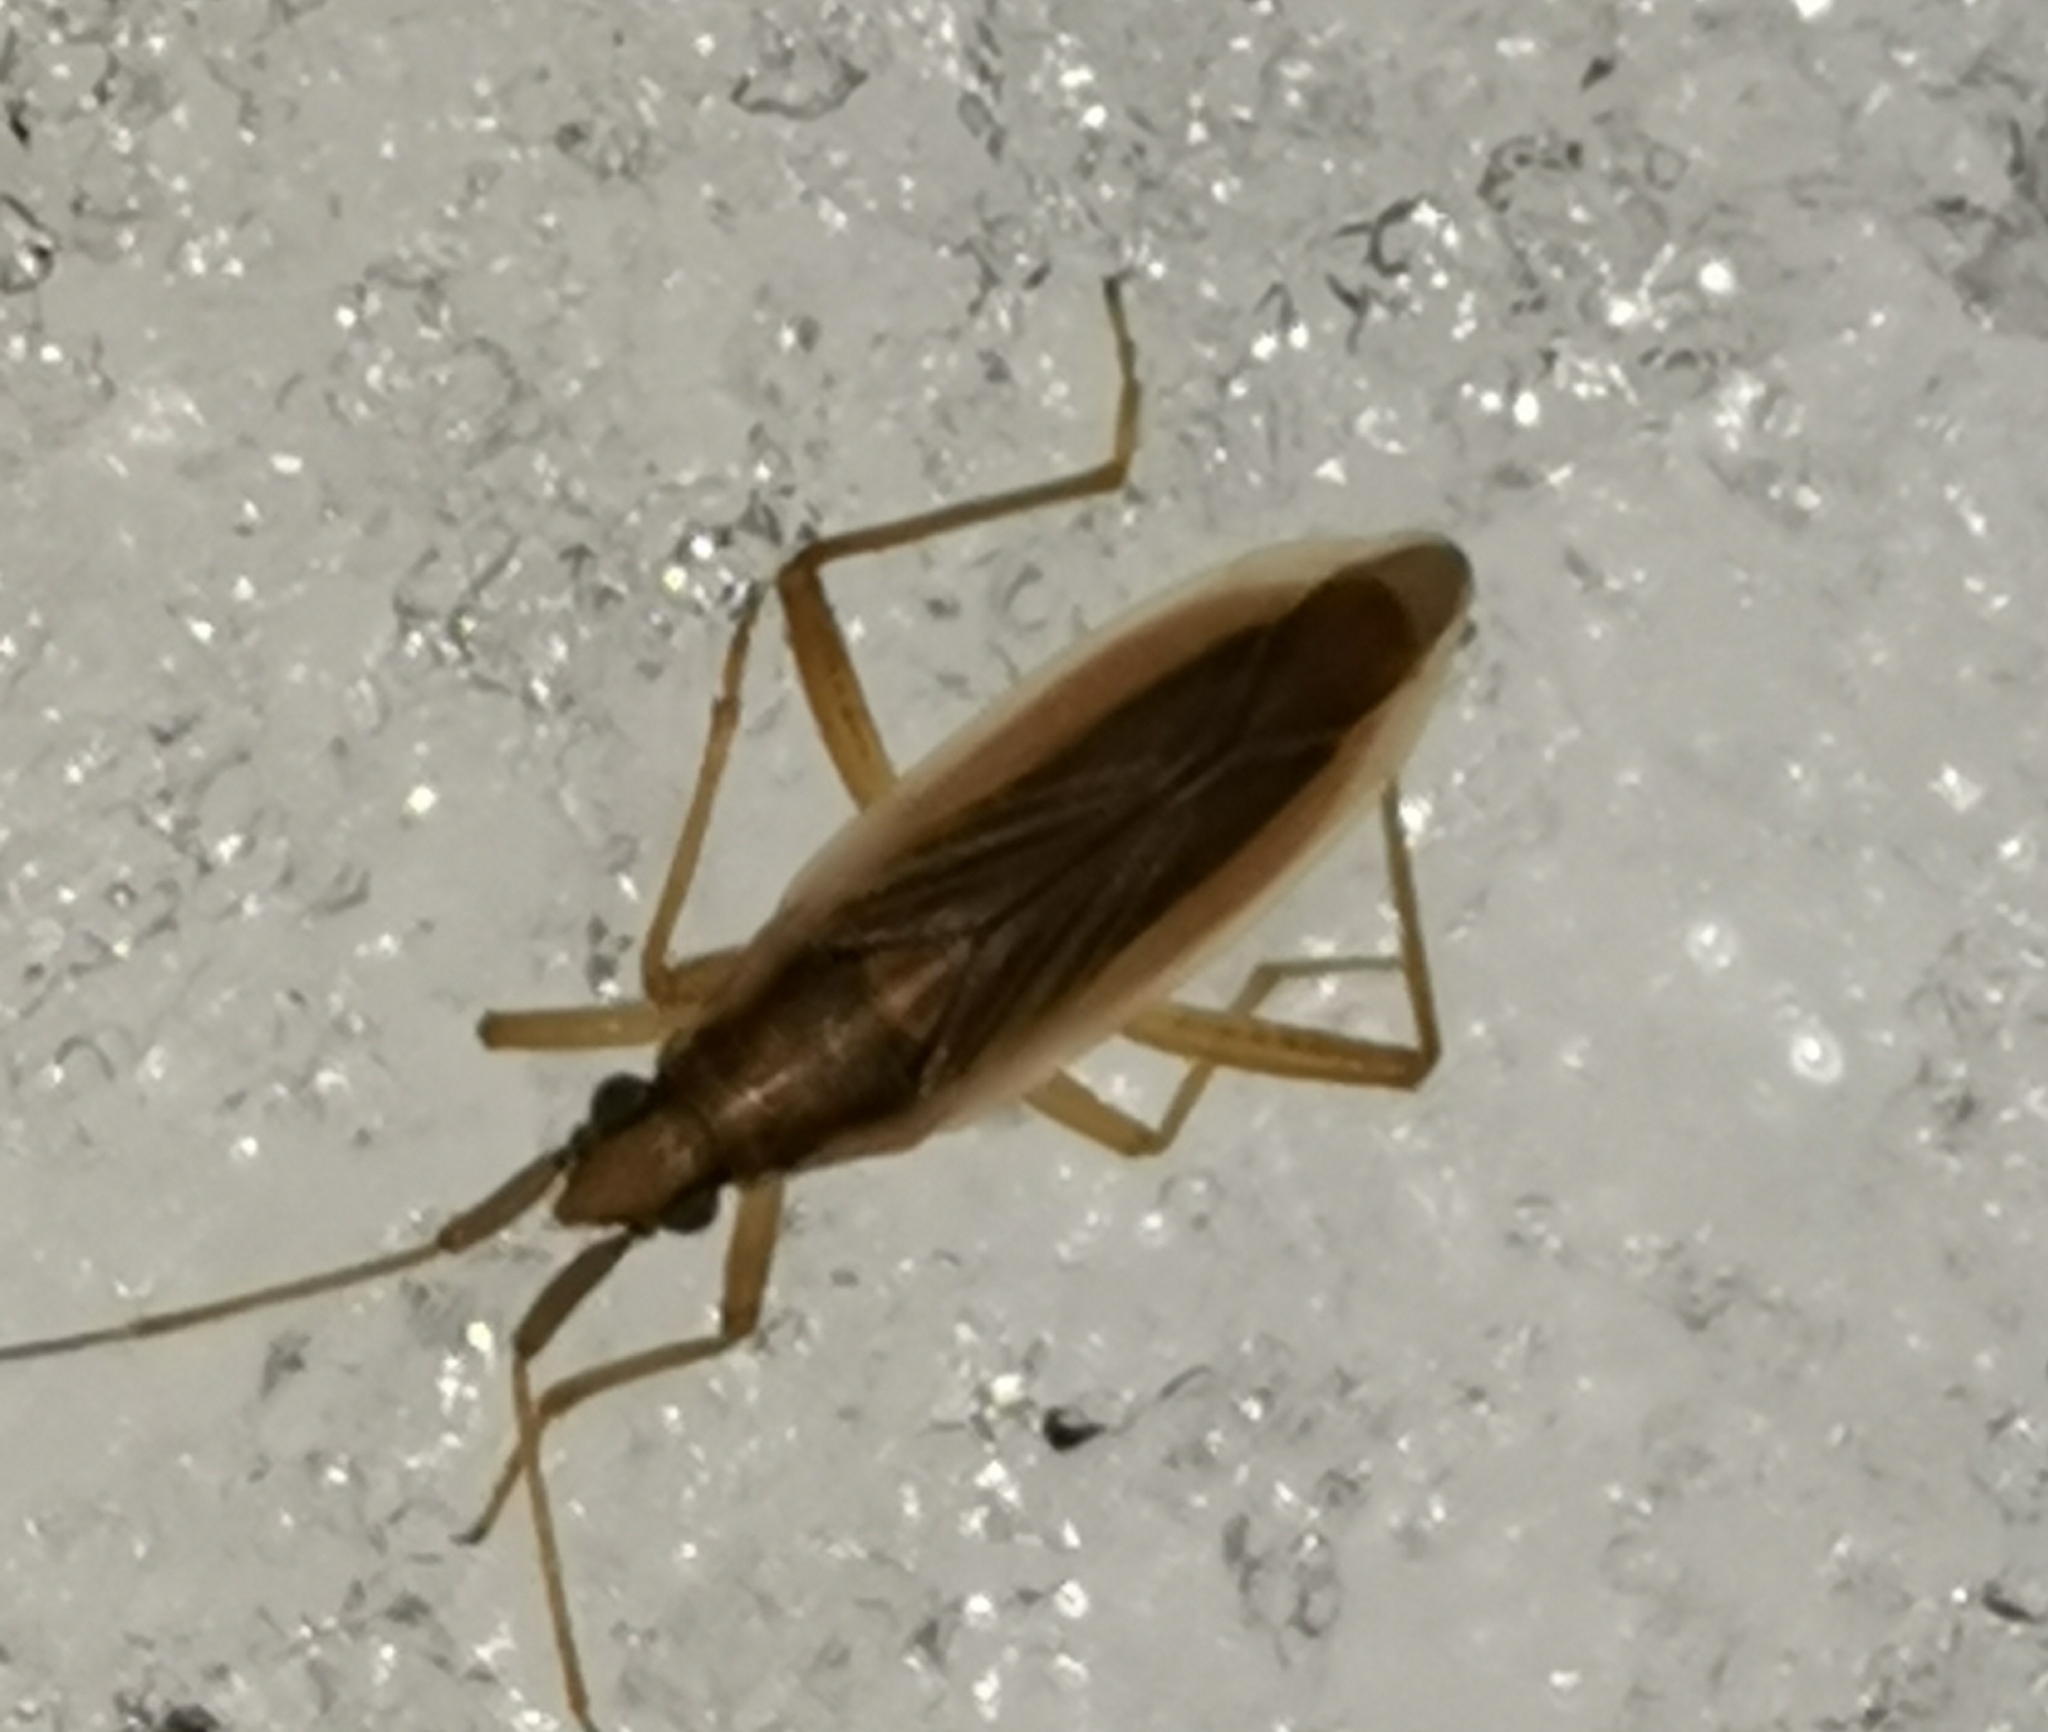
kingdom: Animalia
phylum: Arthropoda
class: Insecta
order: Hemiptera
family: Miridae
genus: Stenodema
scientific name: Stenodema holsata
